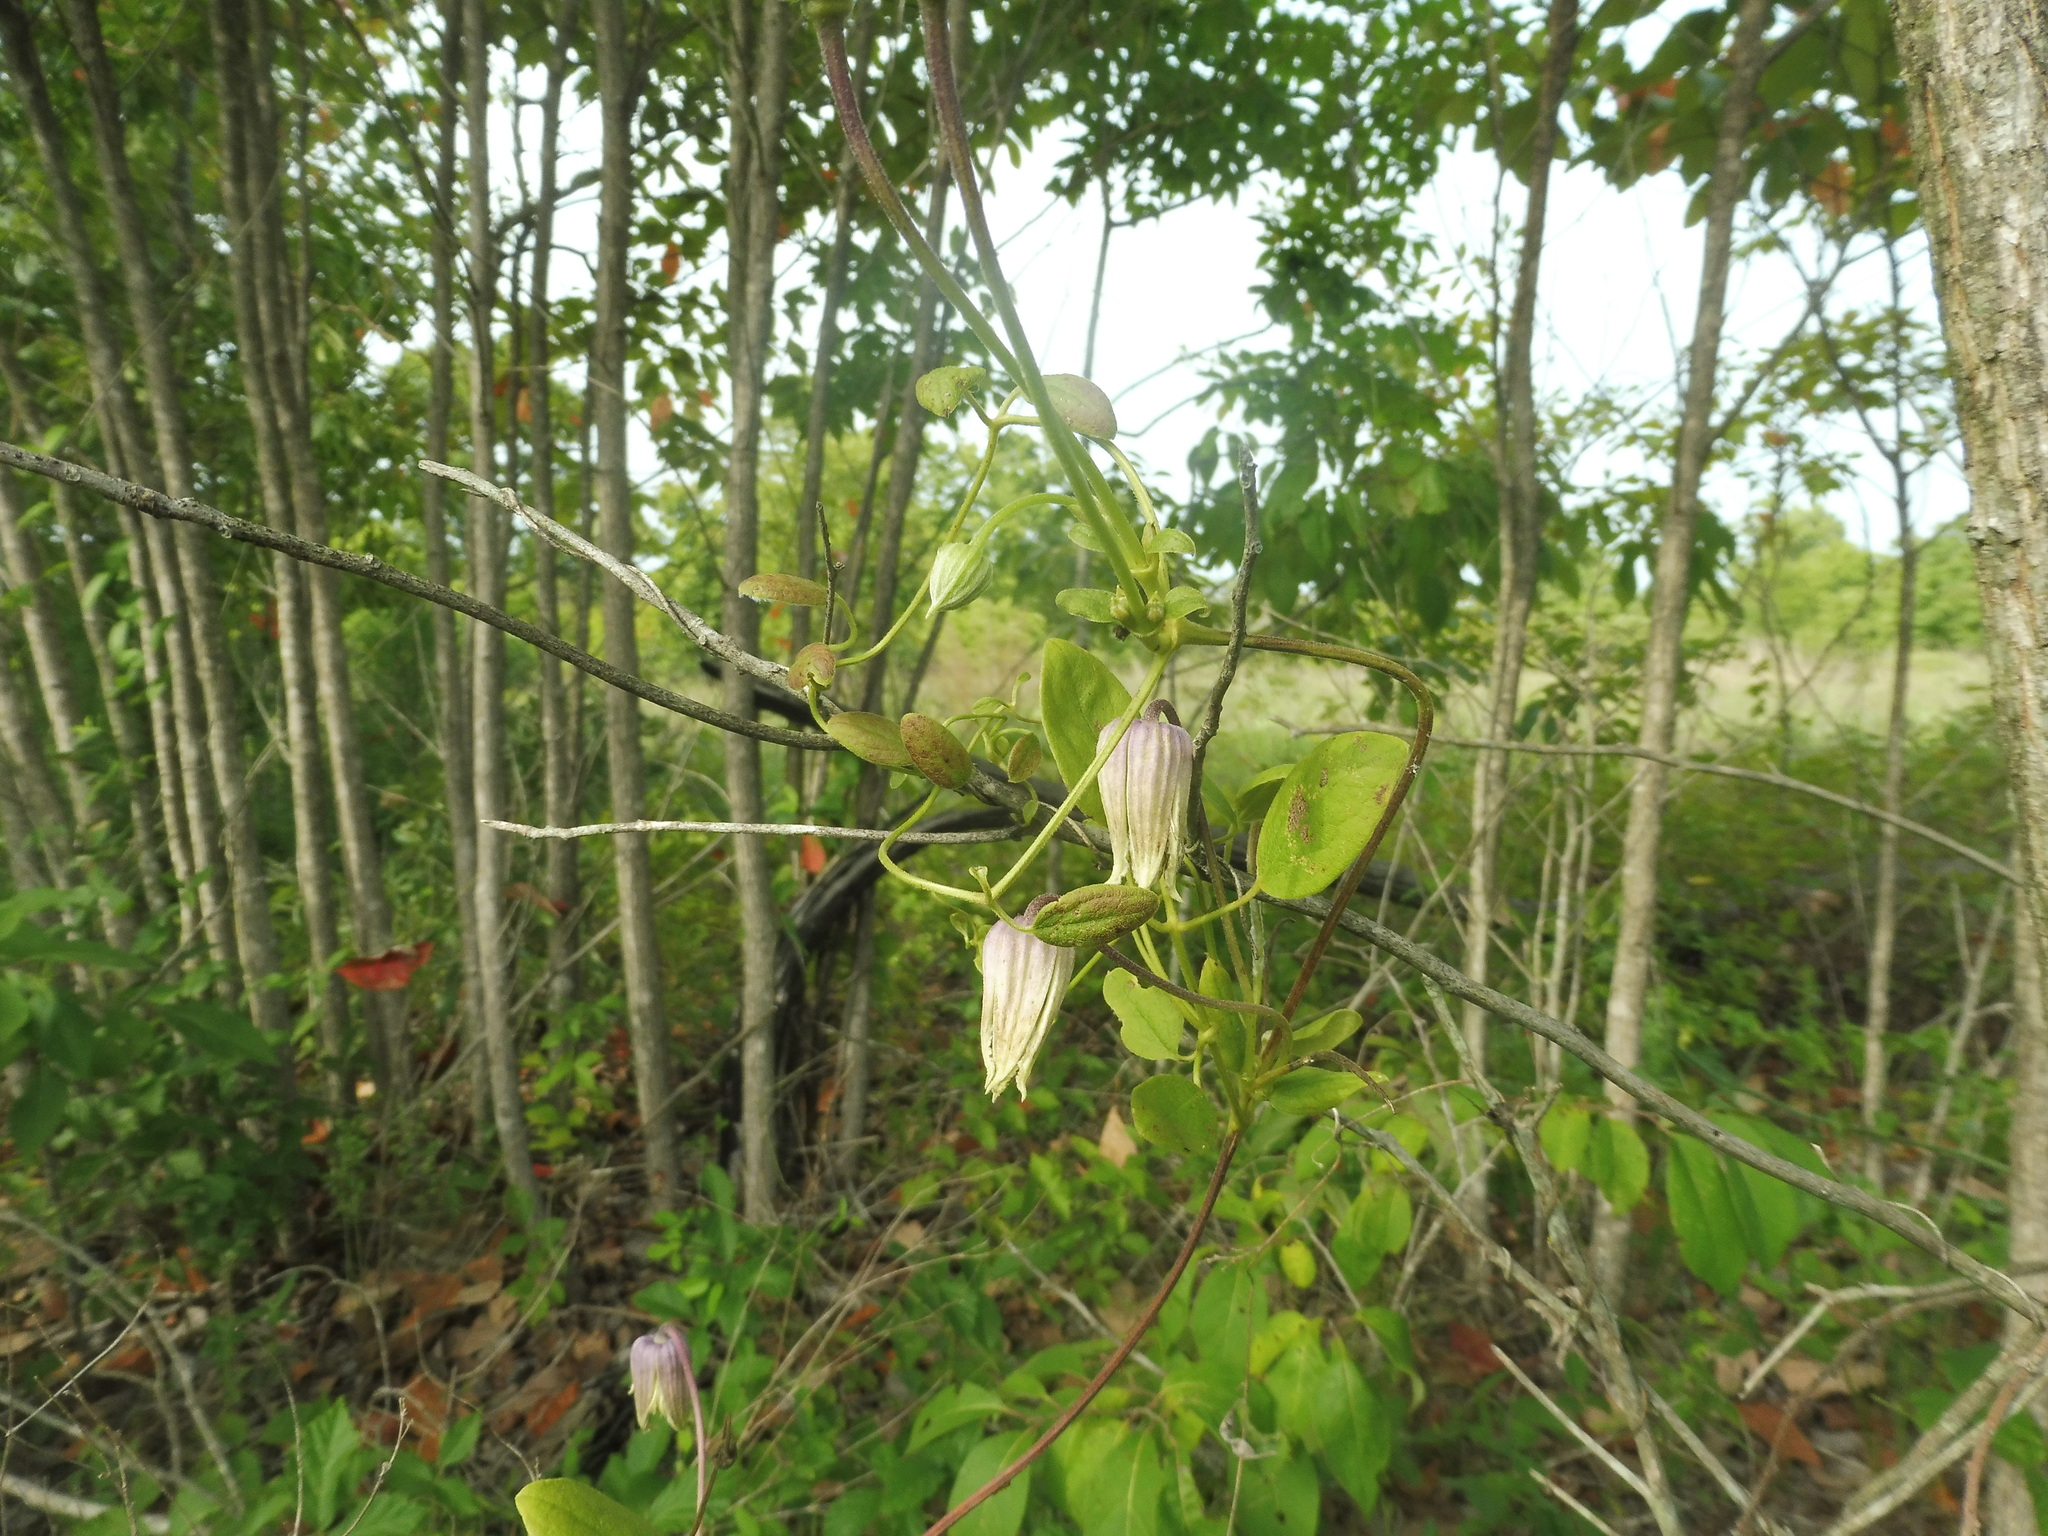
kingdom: Plantae
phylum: Tracheophyta
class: Magnoliopsida
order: Ranunculales
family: Ranunculaceae
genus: Clematis
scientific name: Clematis arenicola
